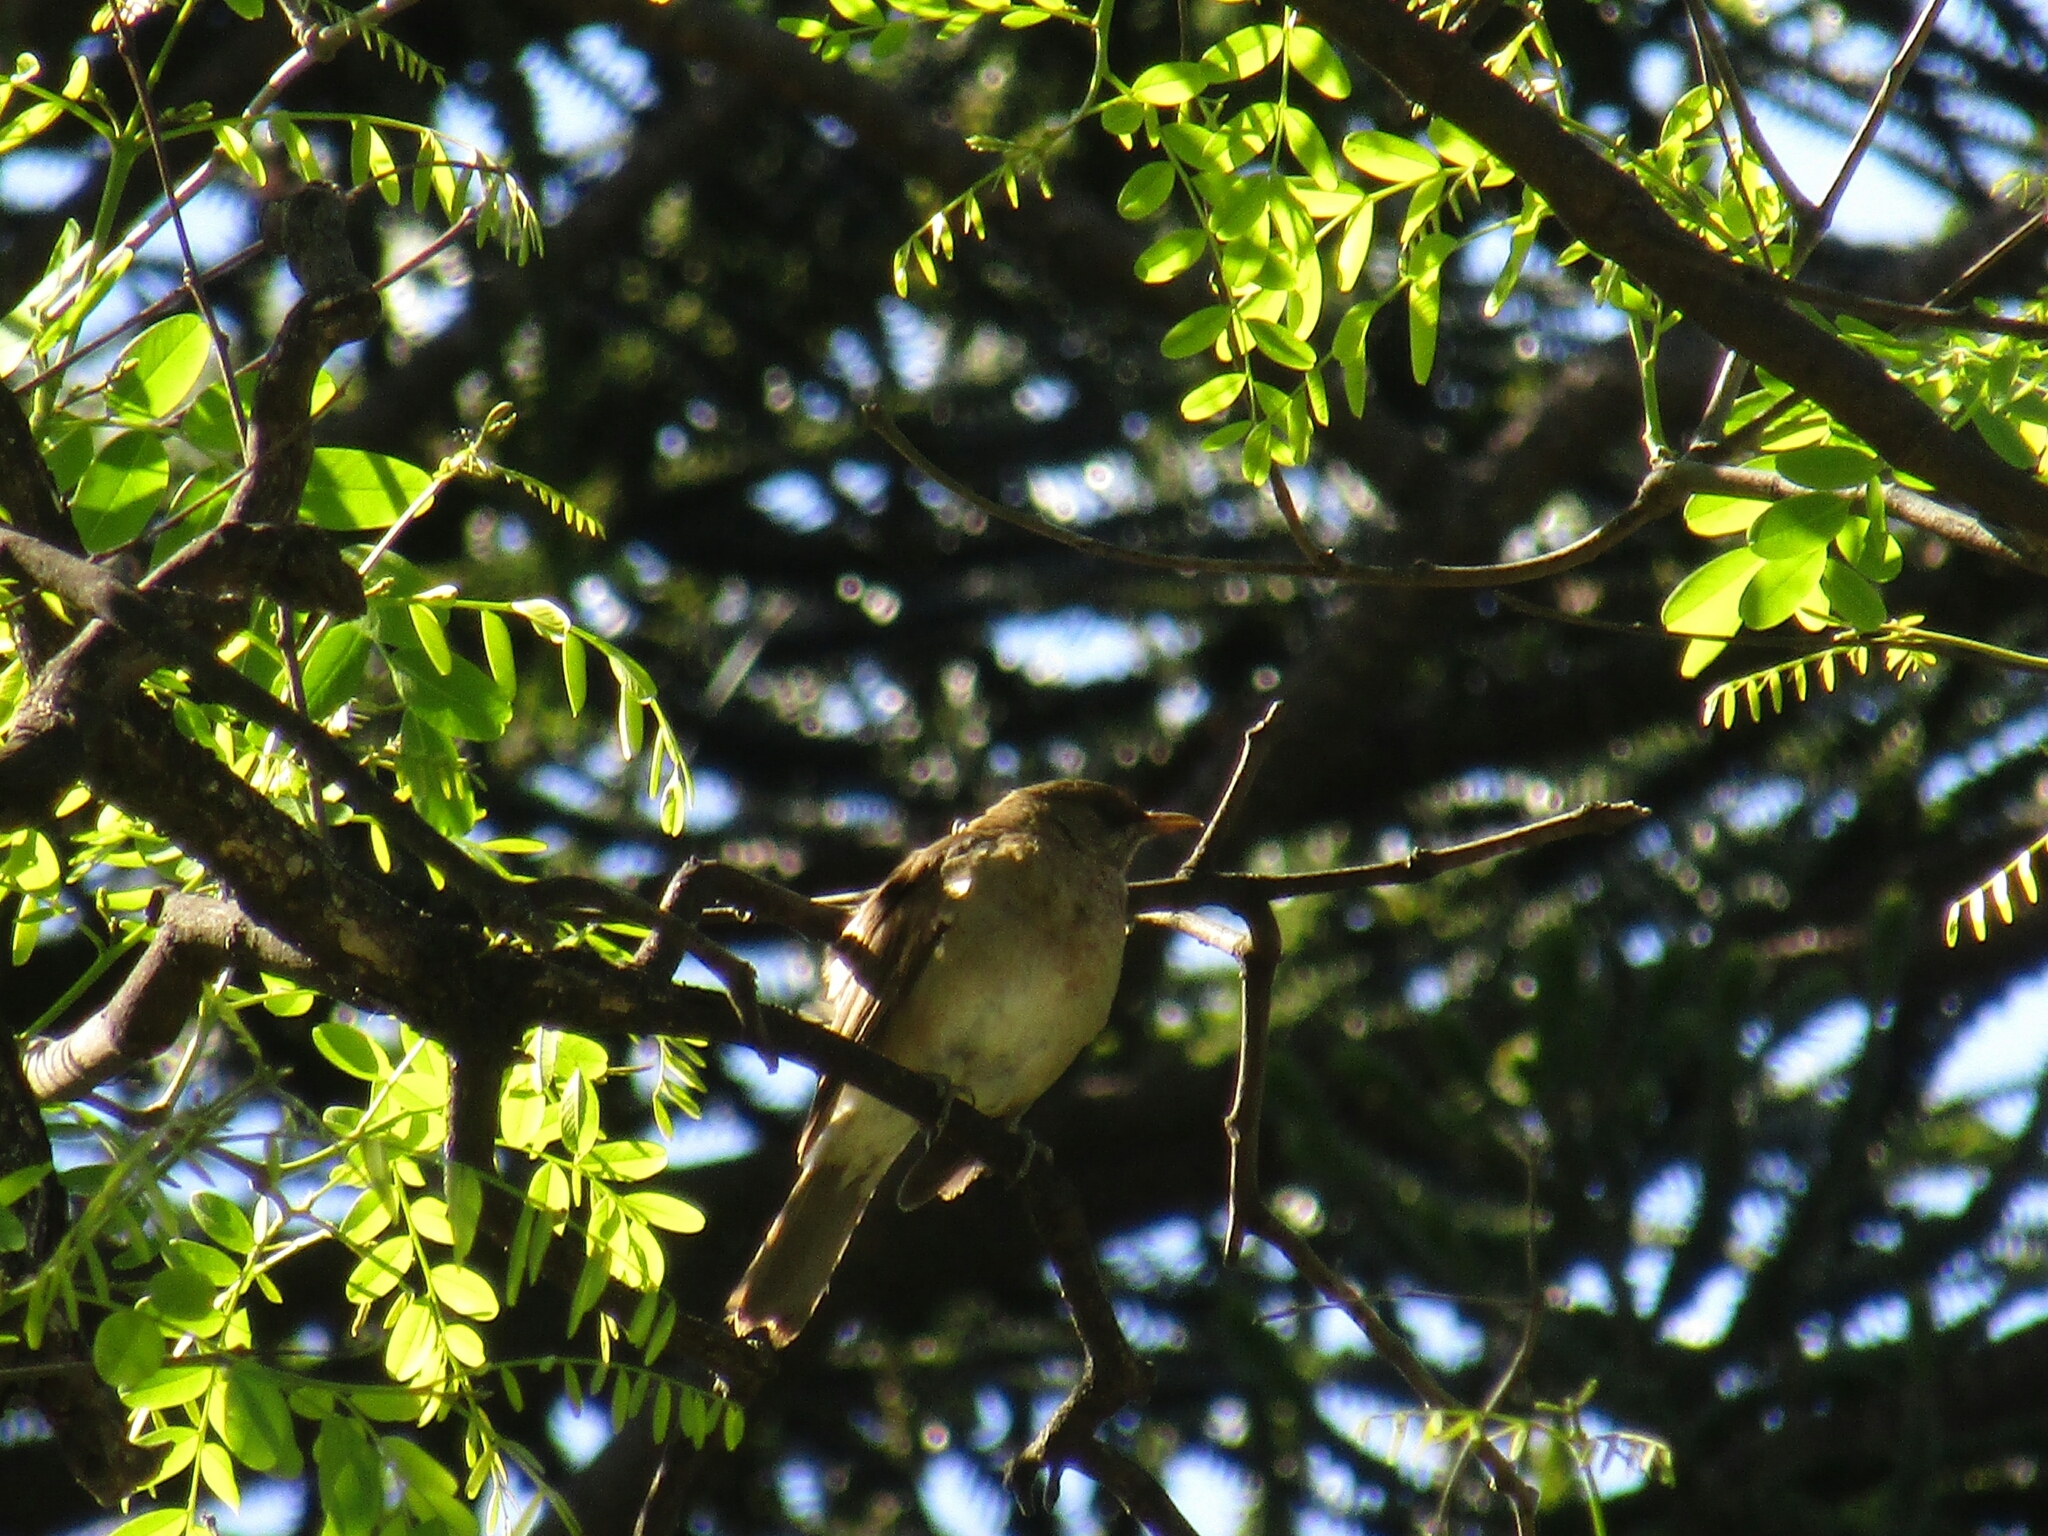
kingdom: Animalia
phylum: Chordata
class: Aves
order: Passeriformes
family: Turdidae
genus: Turdus
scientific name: Turdus amaurochalinus
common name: Creamy-bellied thrush
